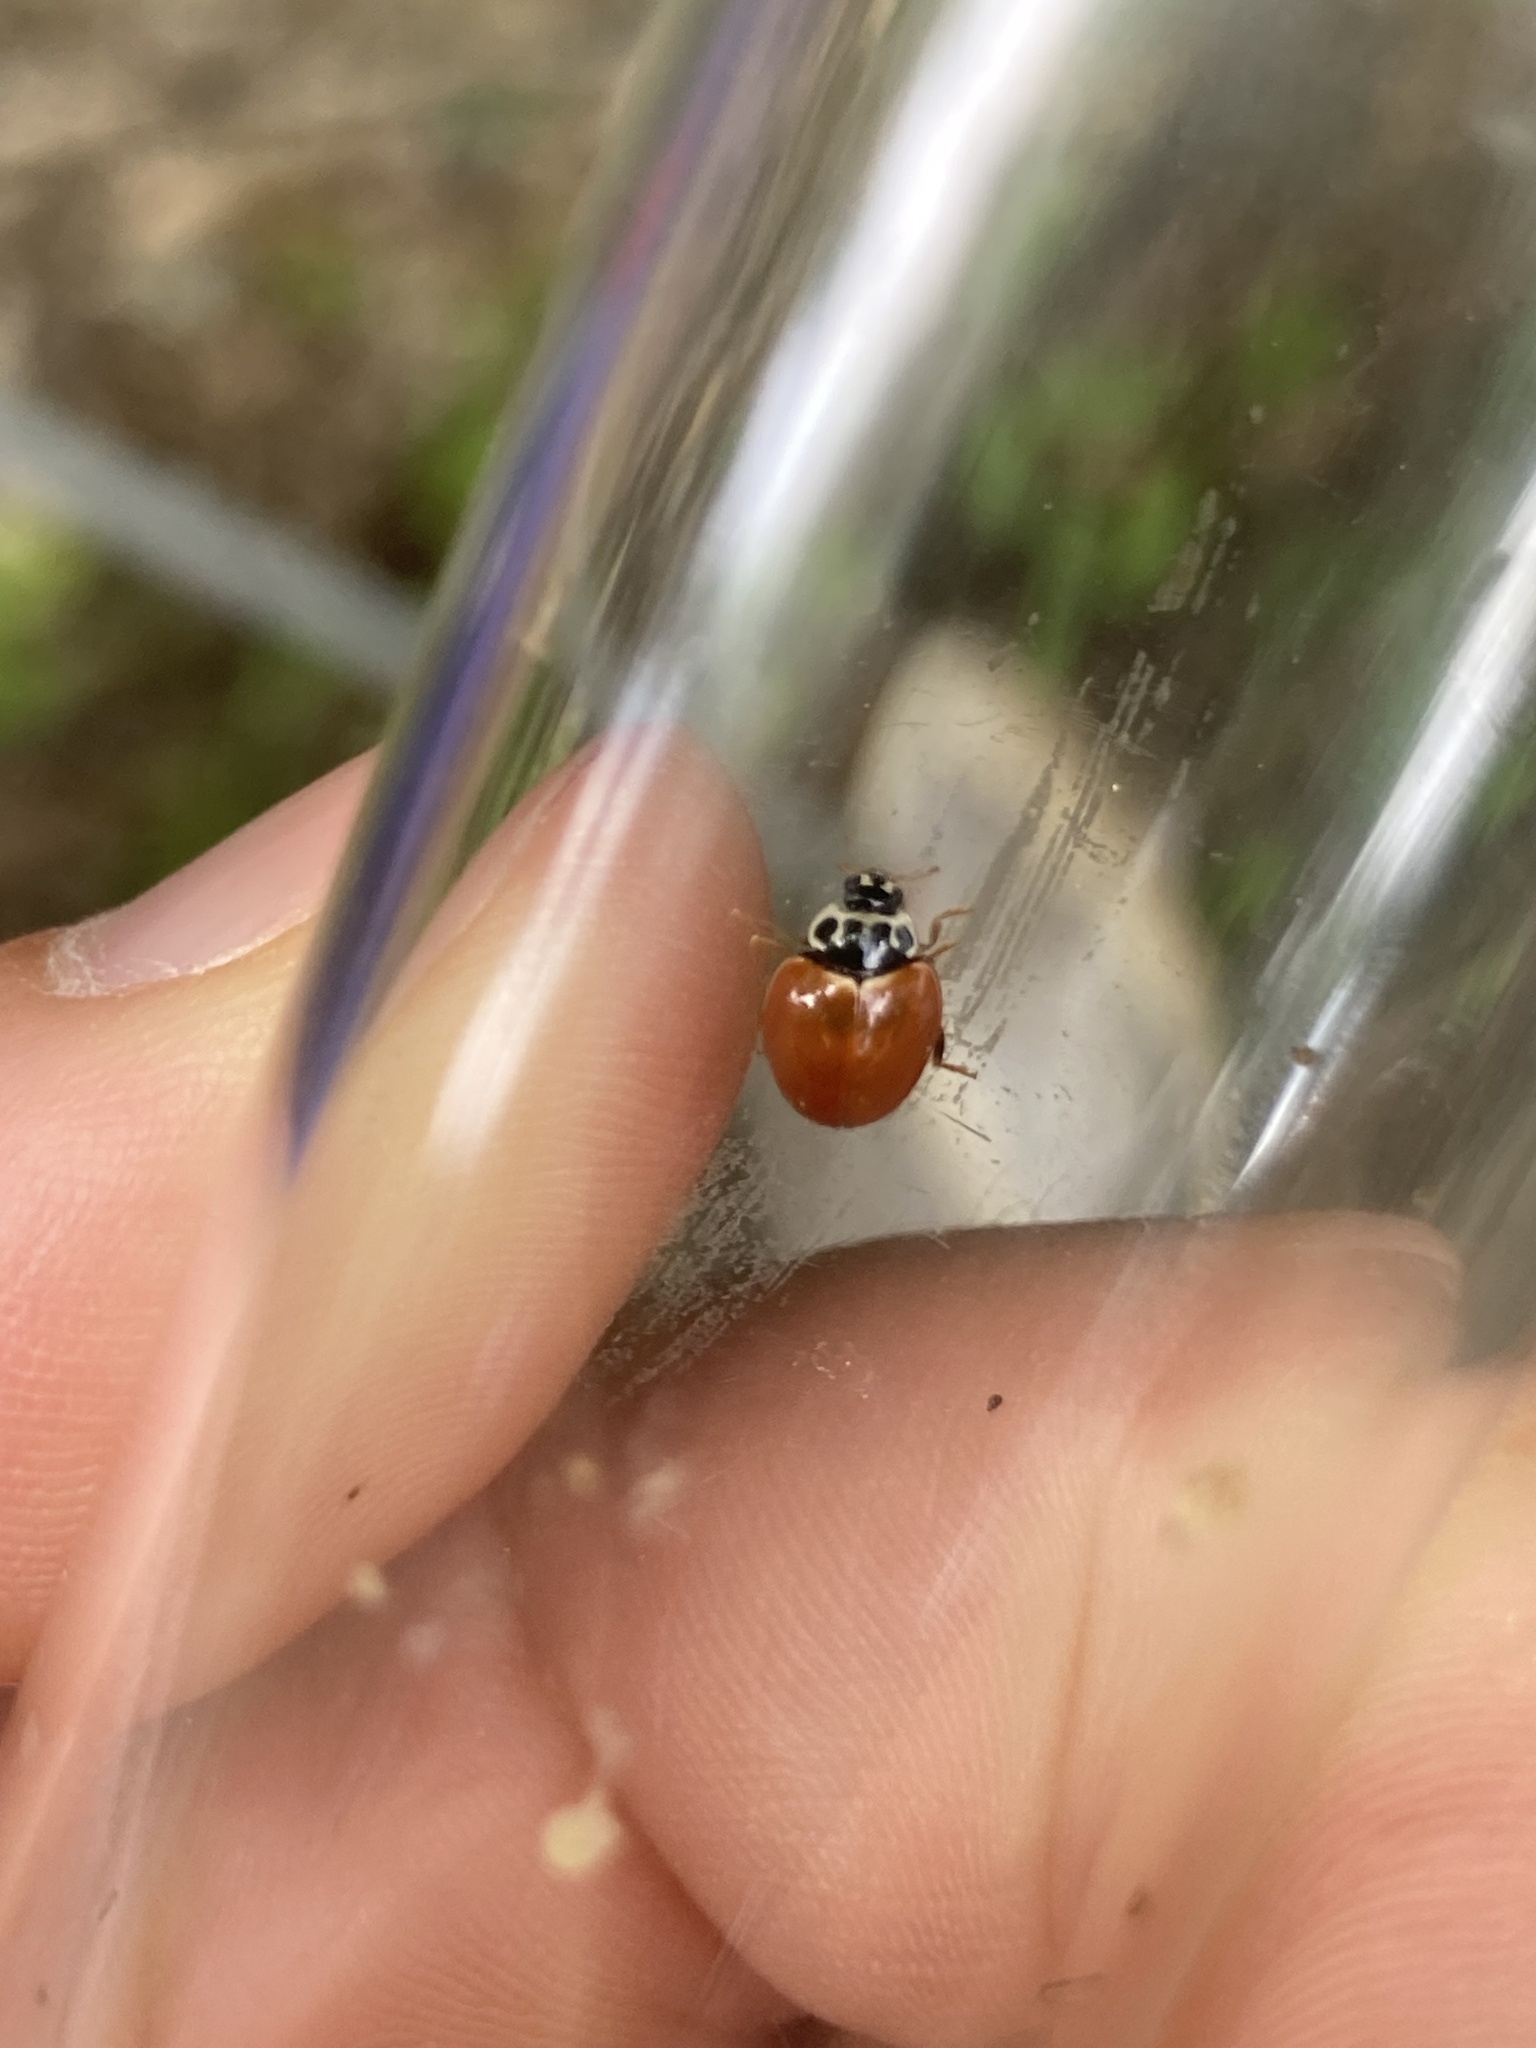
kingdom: Animalia
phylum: Arthropoda
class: Insecta
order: Coleoptera
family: Coccinellidae
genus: Cycloneda
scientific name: Cycloneda munda
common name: Polished lady beetle
